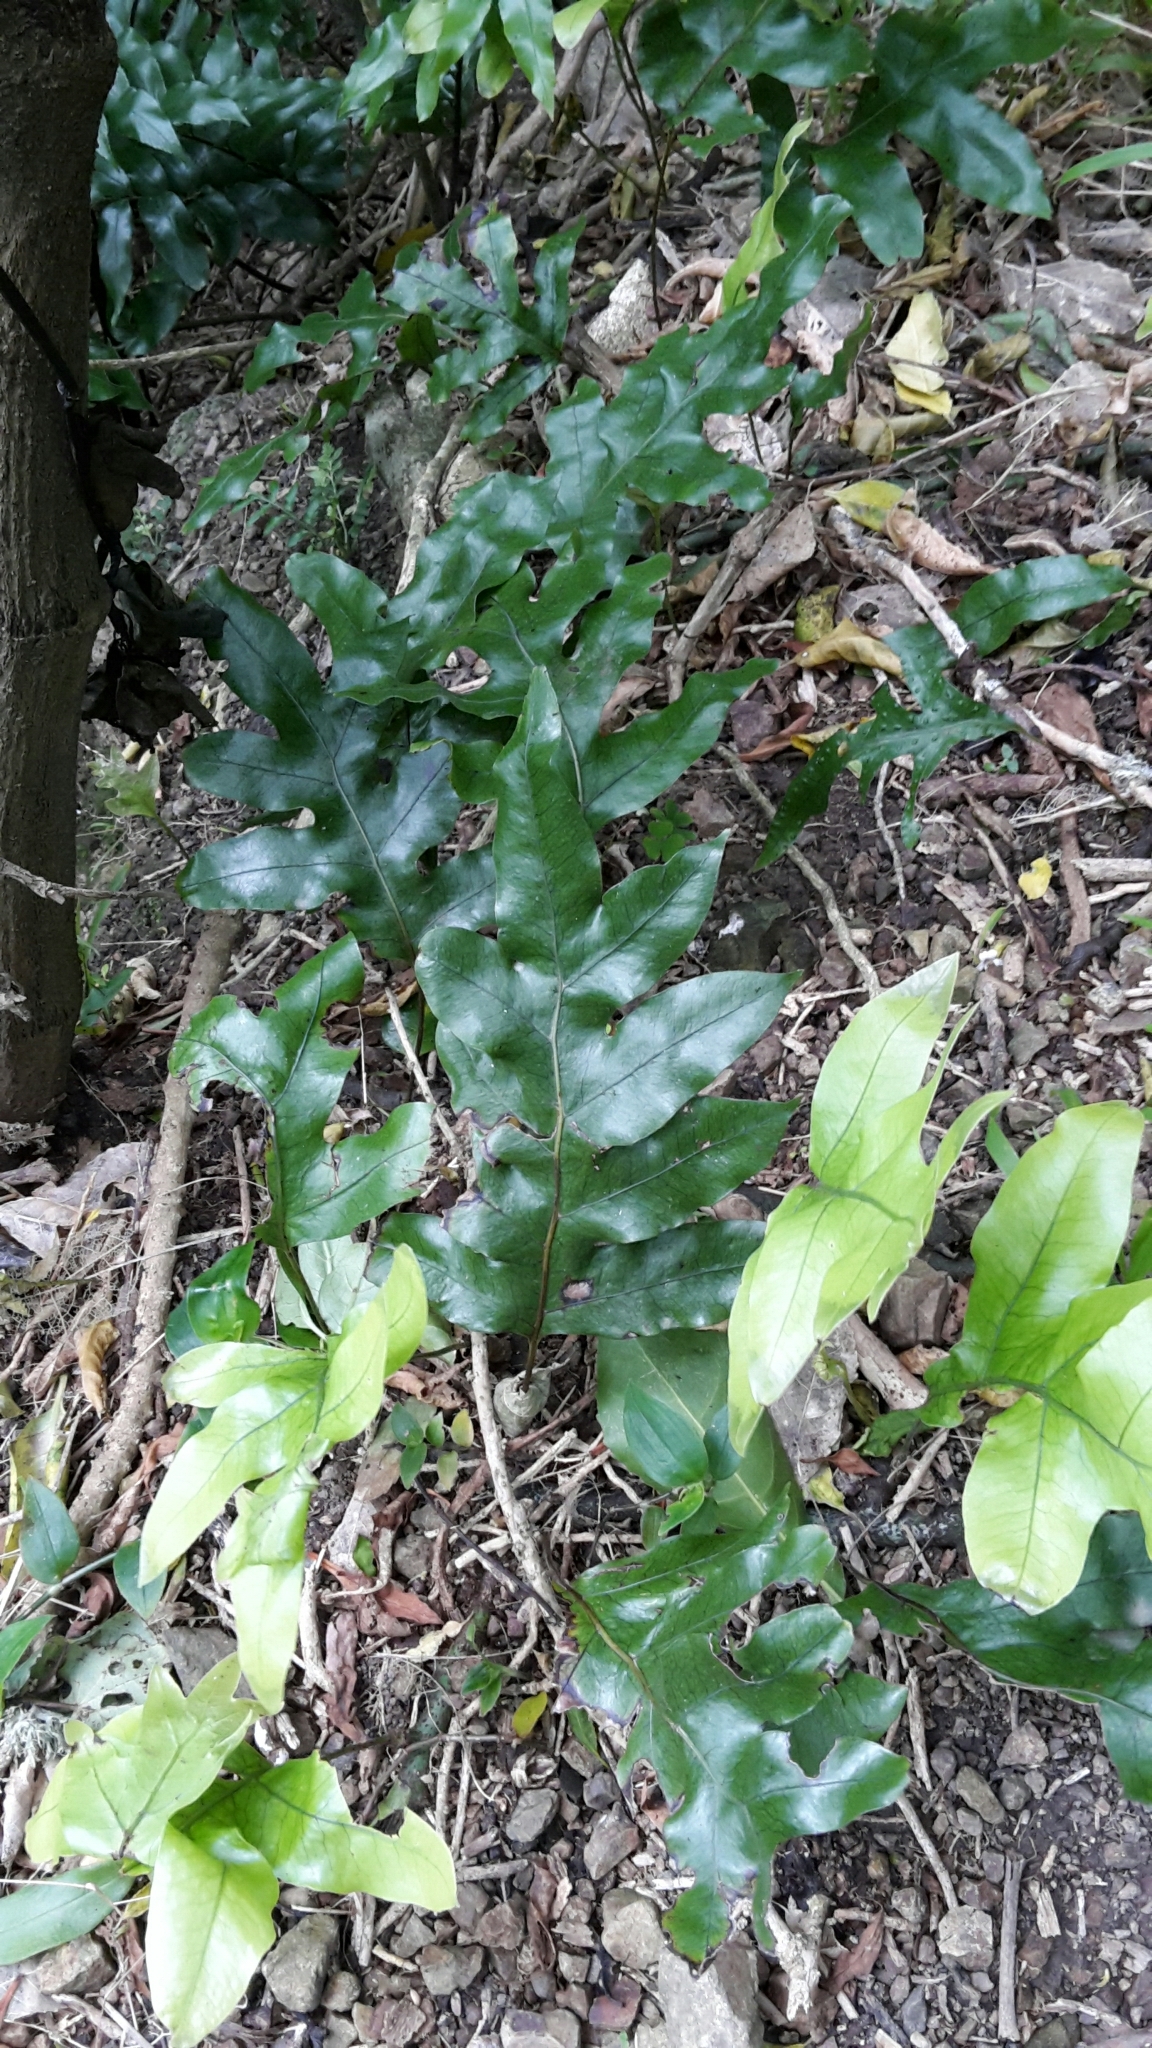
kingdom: Plantae
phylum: Tracheophyta
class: Polypodiopsida
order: Polypodiales
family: Polypodiaceae
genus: Lecanopteris
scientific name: Lecanopteris pustulata
